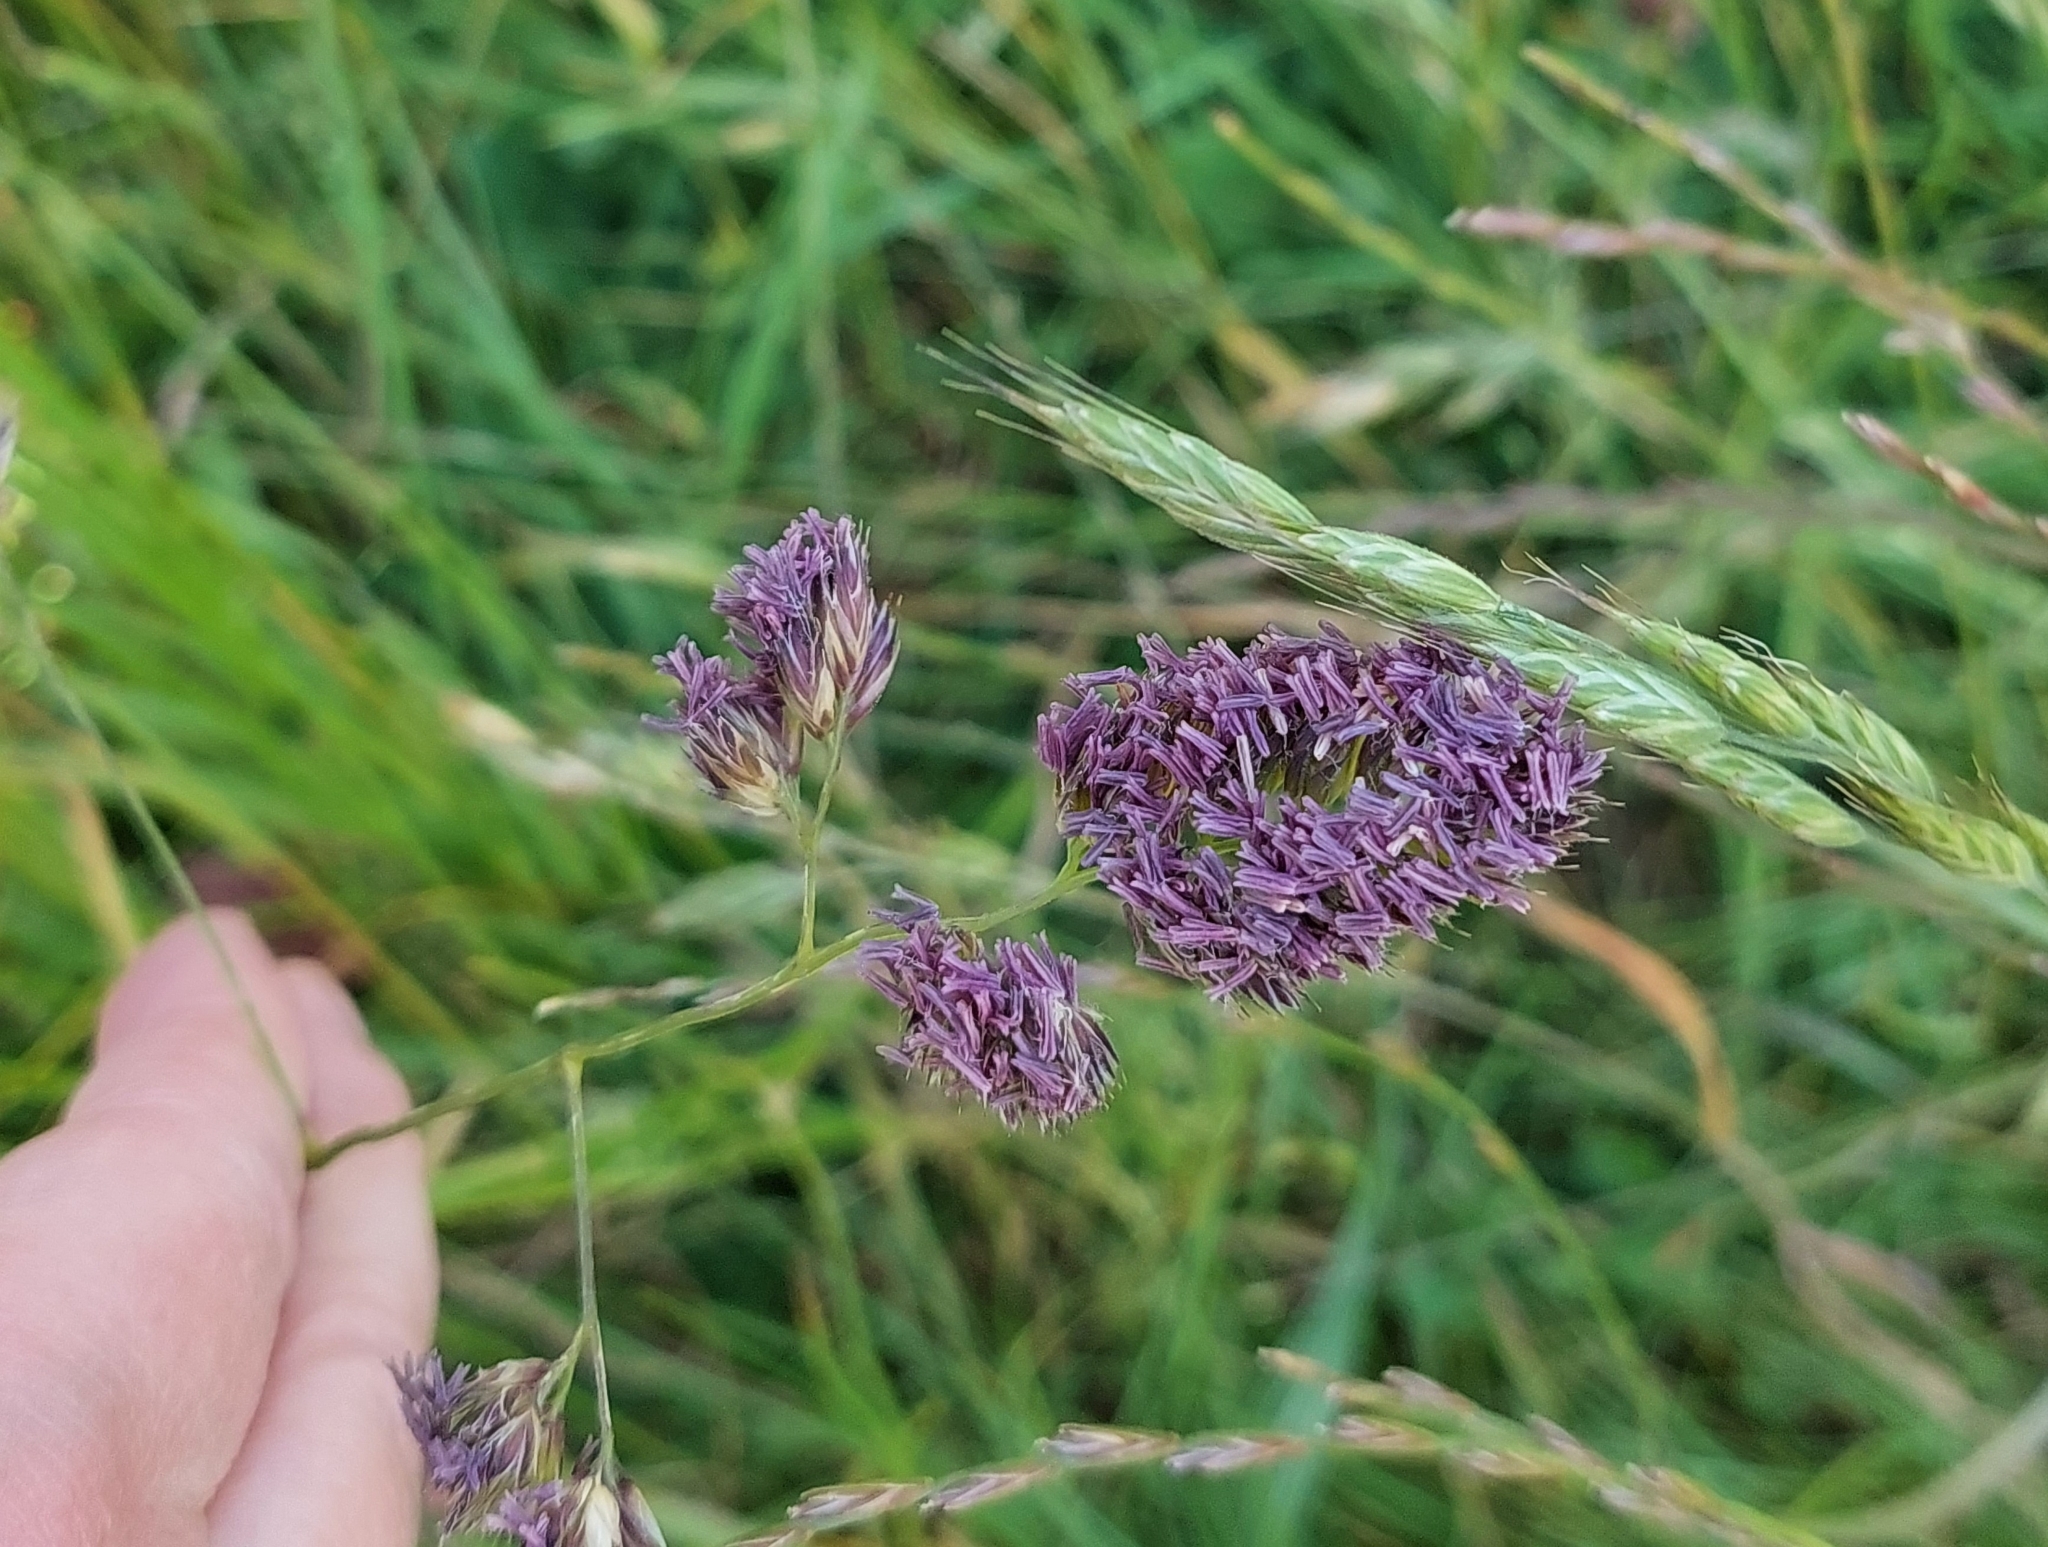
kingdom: Plantae
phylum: Tracheophyta
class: Liliopsida
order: Poales
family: Poaceae
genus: Dactylis
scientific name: Dactylis glomerata
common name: Orchardgrass
